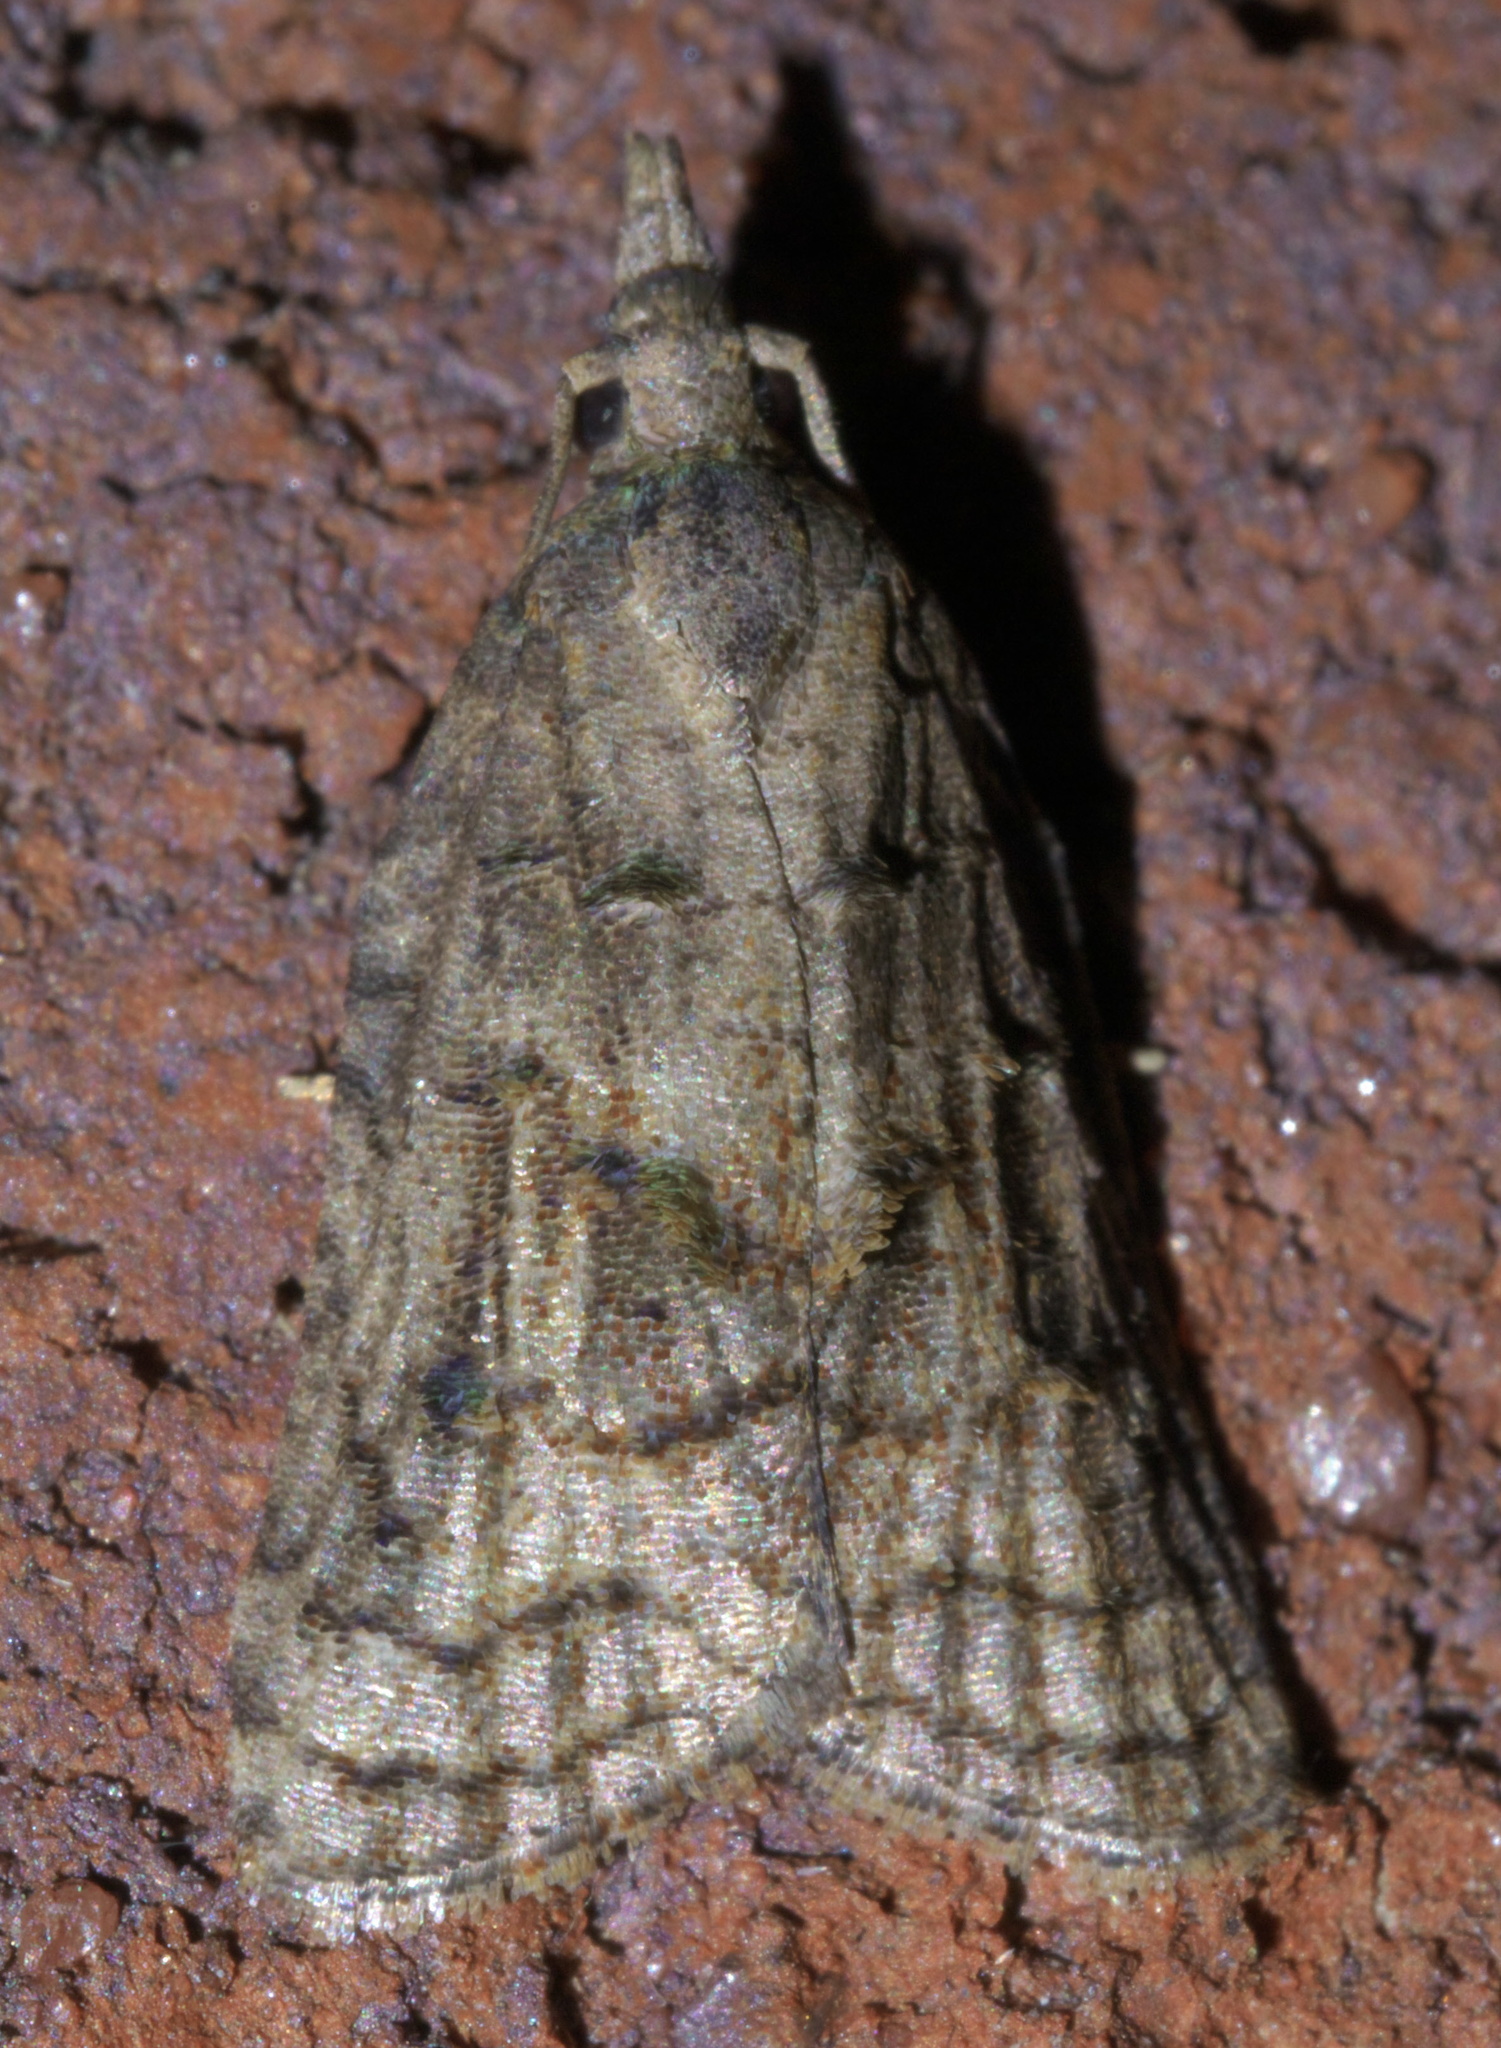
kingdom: Animalia
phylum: Arthropoda
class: Insecta
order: Lepidoptera
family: Tortricidae
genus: Platynota
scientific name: Platynota idaeusalis
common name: Tufted apple bud moth
